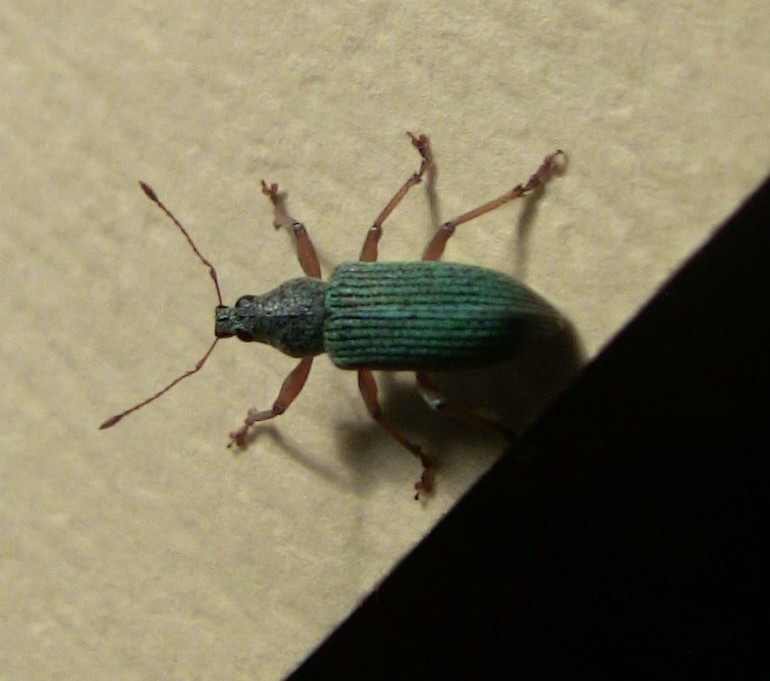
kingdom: Animalia
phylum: Arthropoda
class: Insecta
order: Coleoptera
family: Curculionidae
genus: Polydrusus
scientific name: Polydrusus formosus
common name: Weevil
